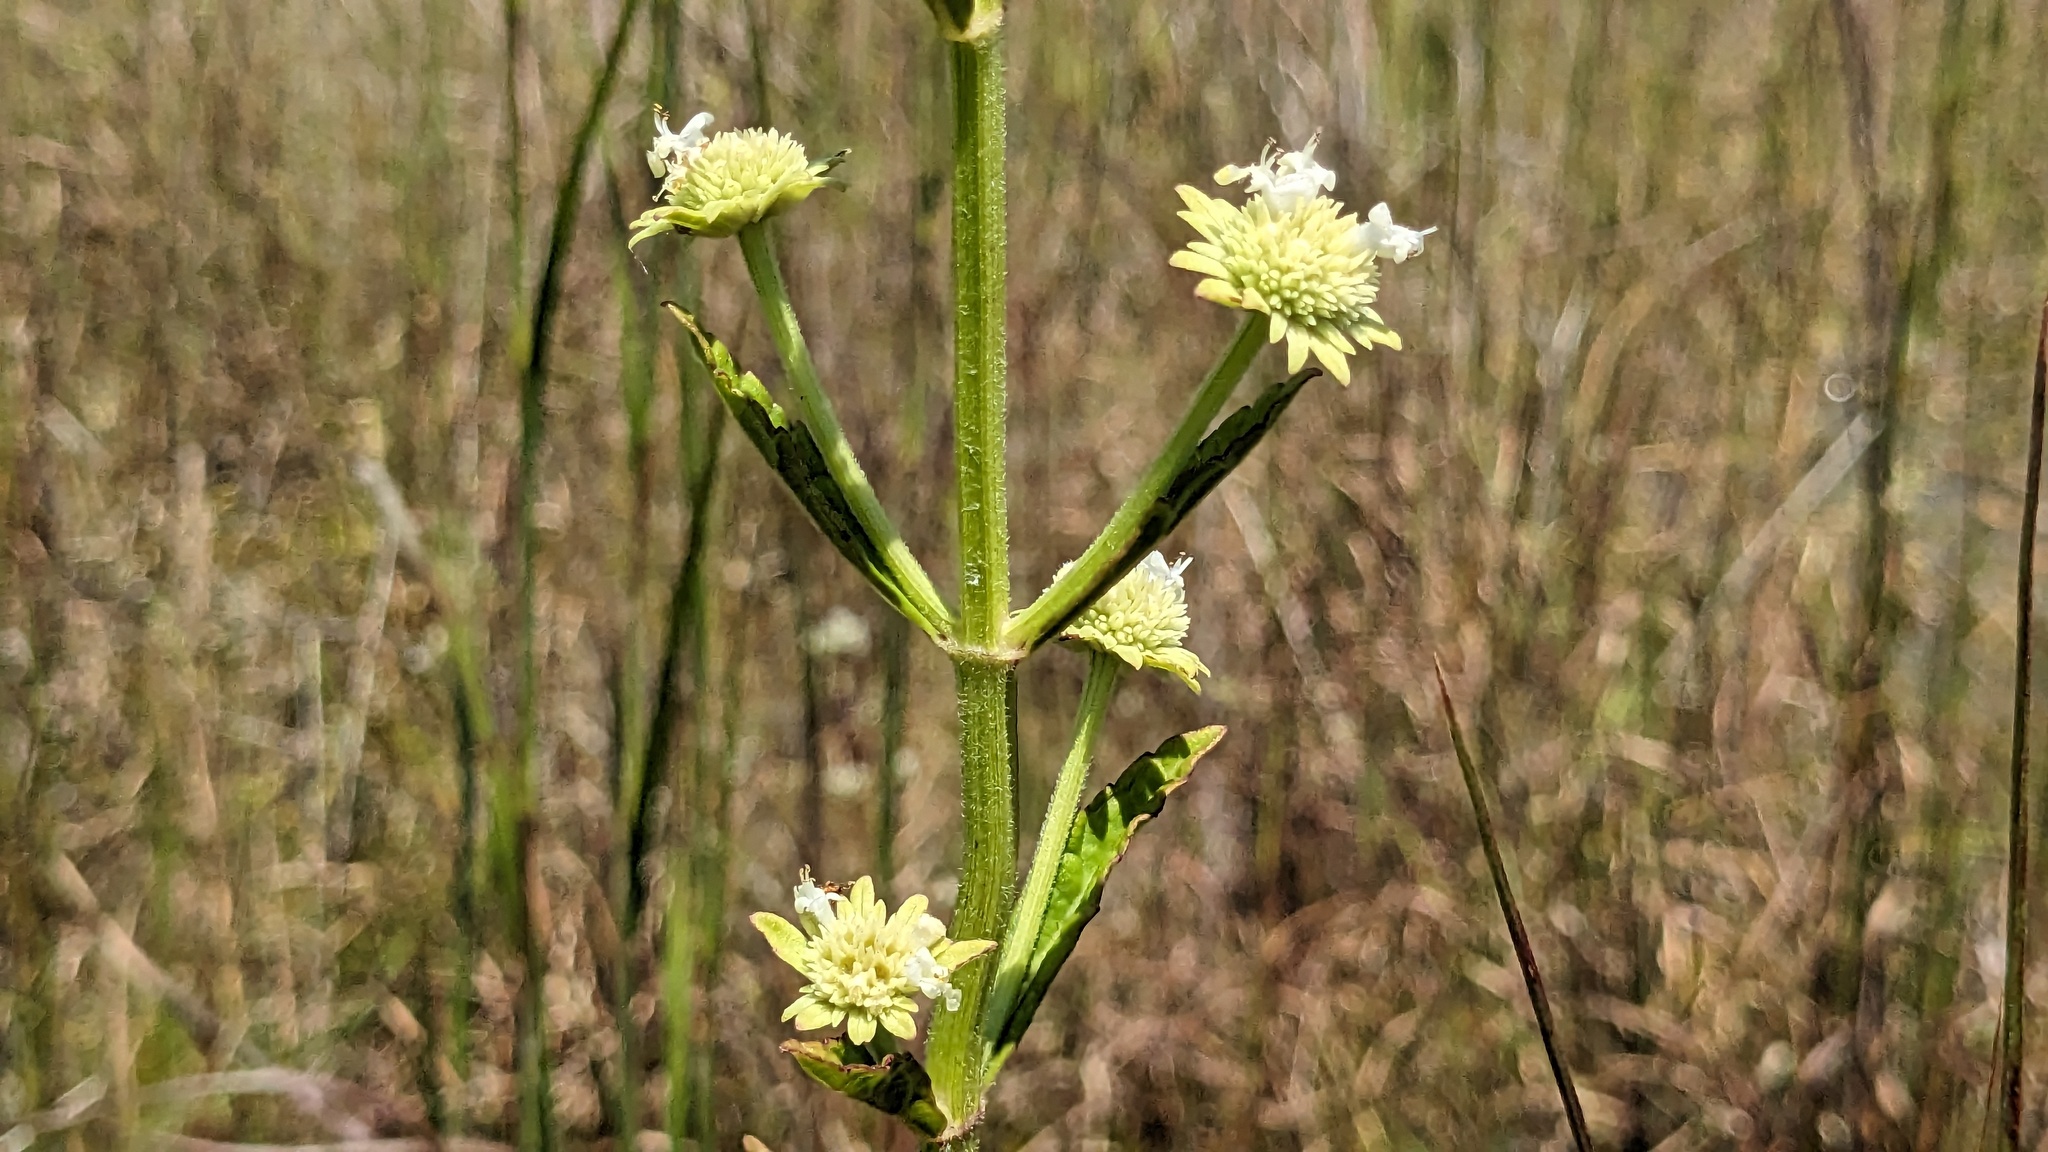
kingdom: Plantae
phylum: Tracheophyta
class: Magnoliopsida
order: Lamiales
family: Lamiaceae
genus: Hyptis
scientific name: Hyptis alata
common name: Cluster bush-mint
